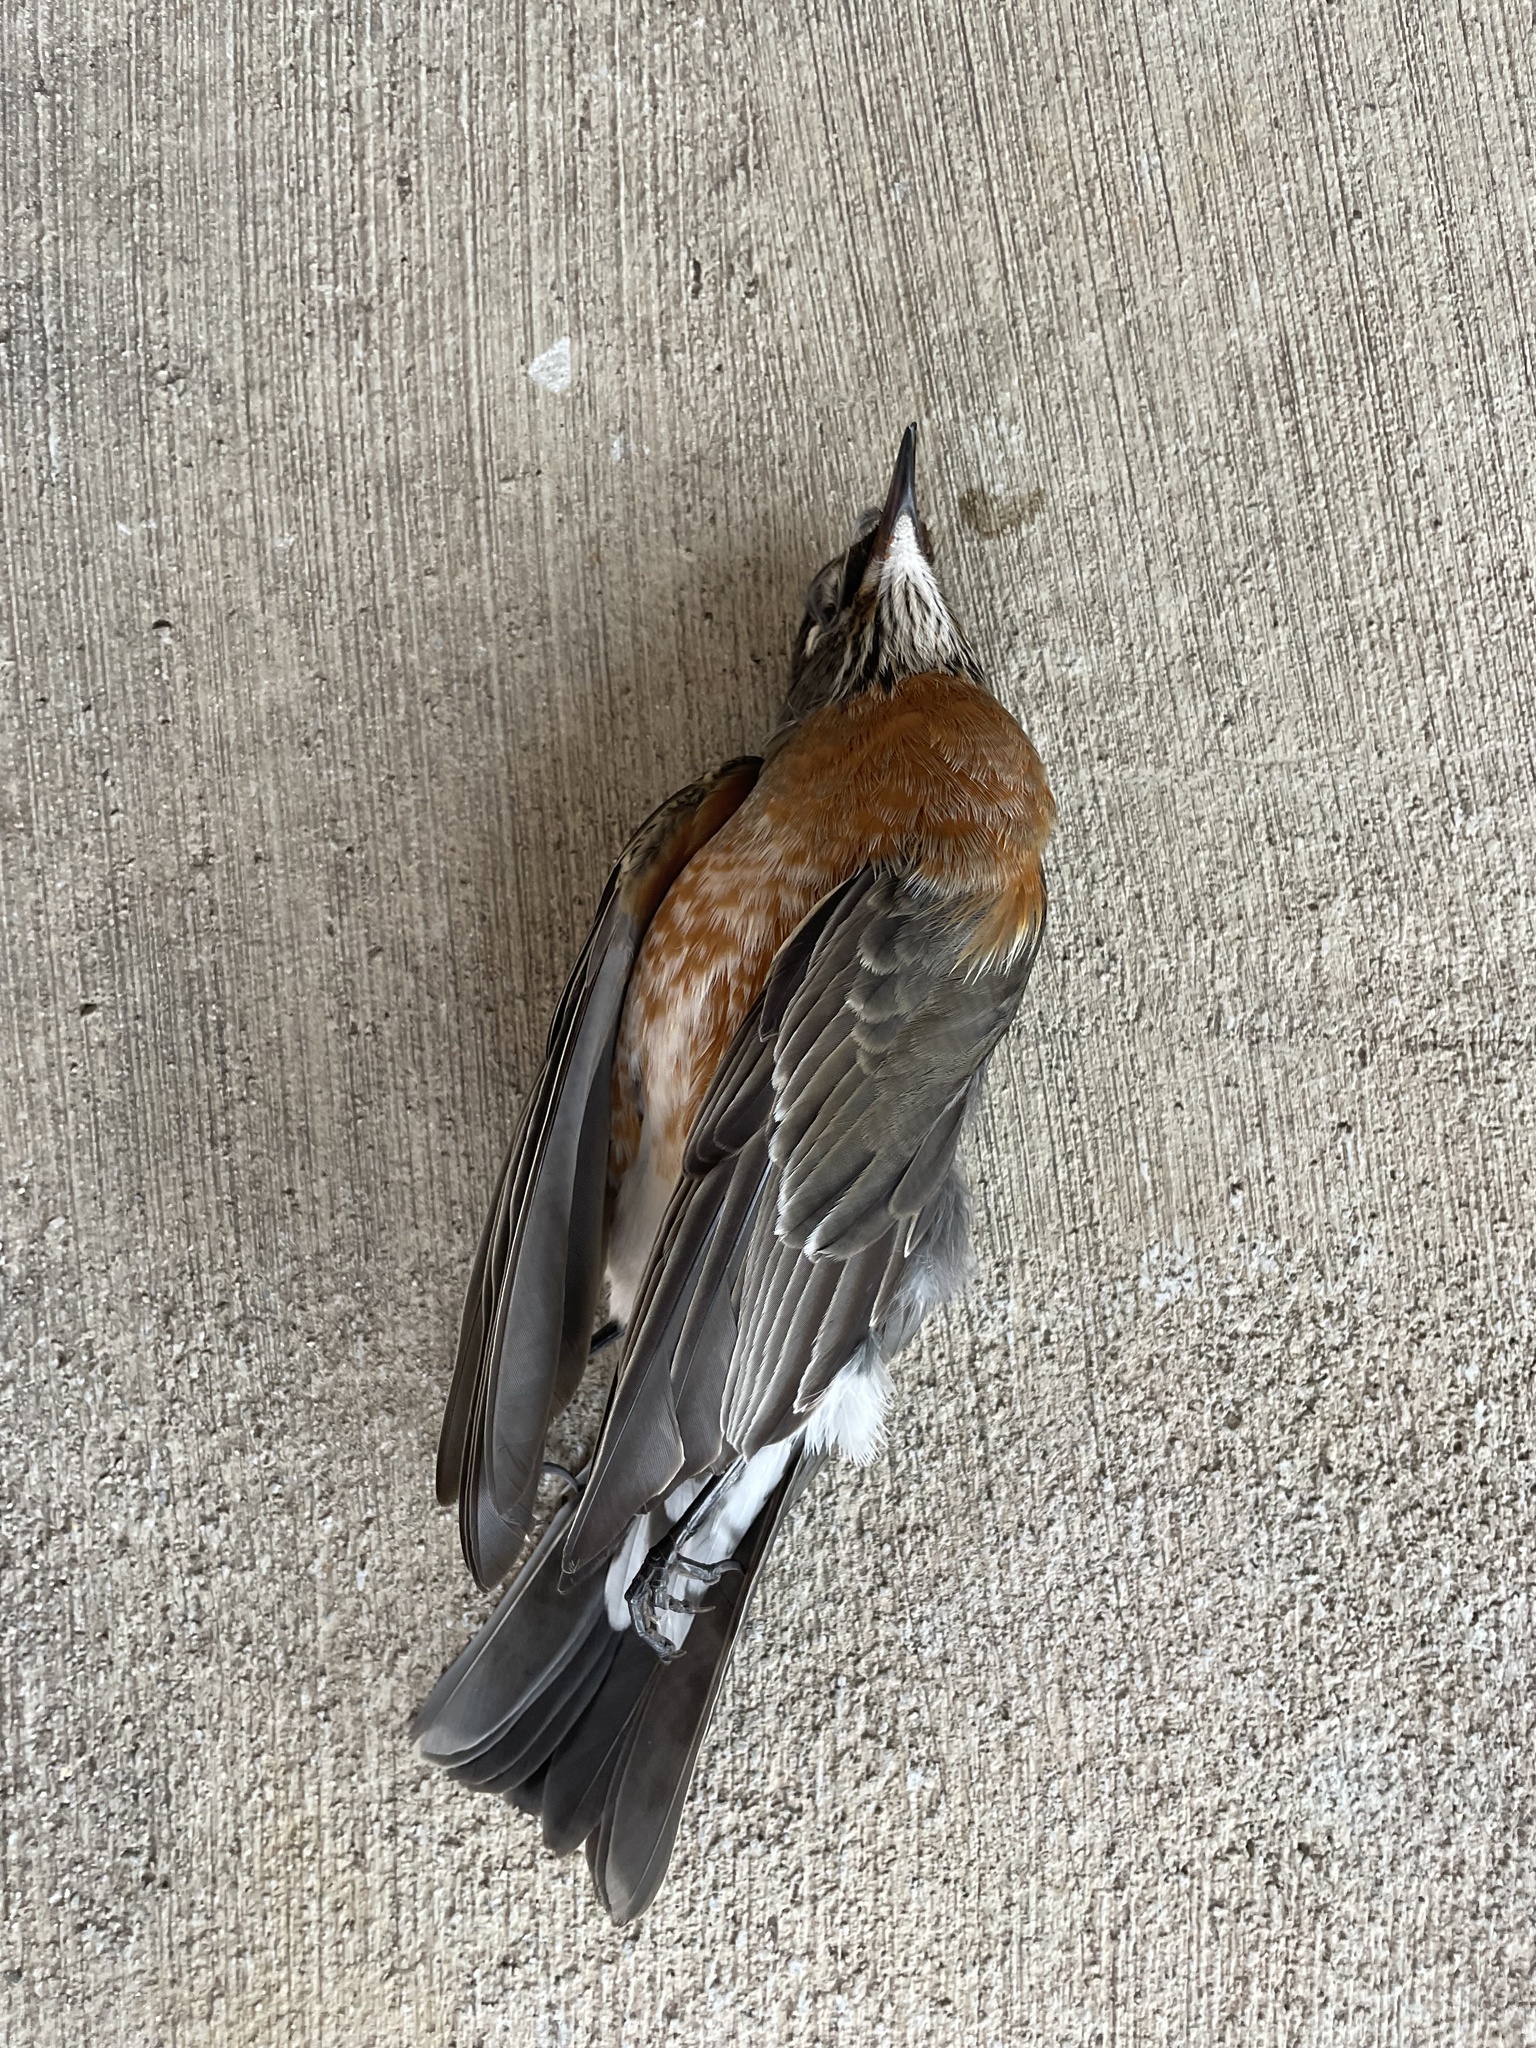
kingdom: Animalia
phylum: Chordata
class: Aves
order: Passeriformes
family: Turdidae
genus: Turdus
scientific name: Turdus migratorius
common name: American robin
